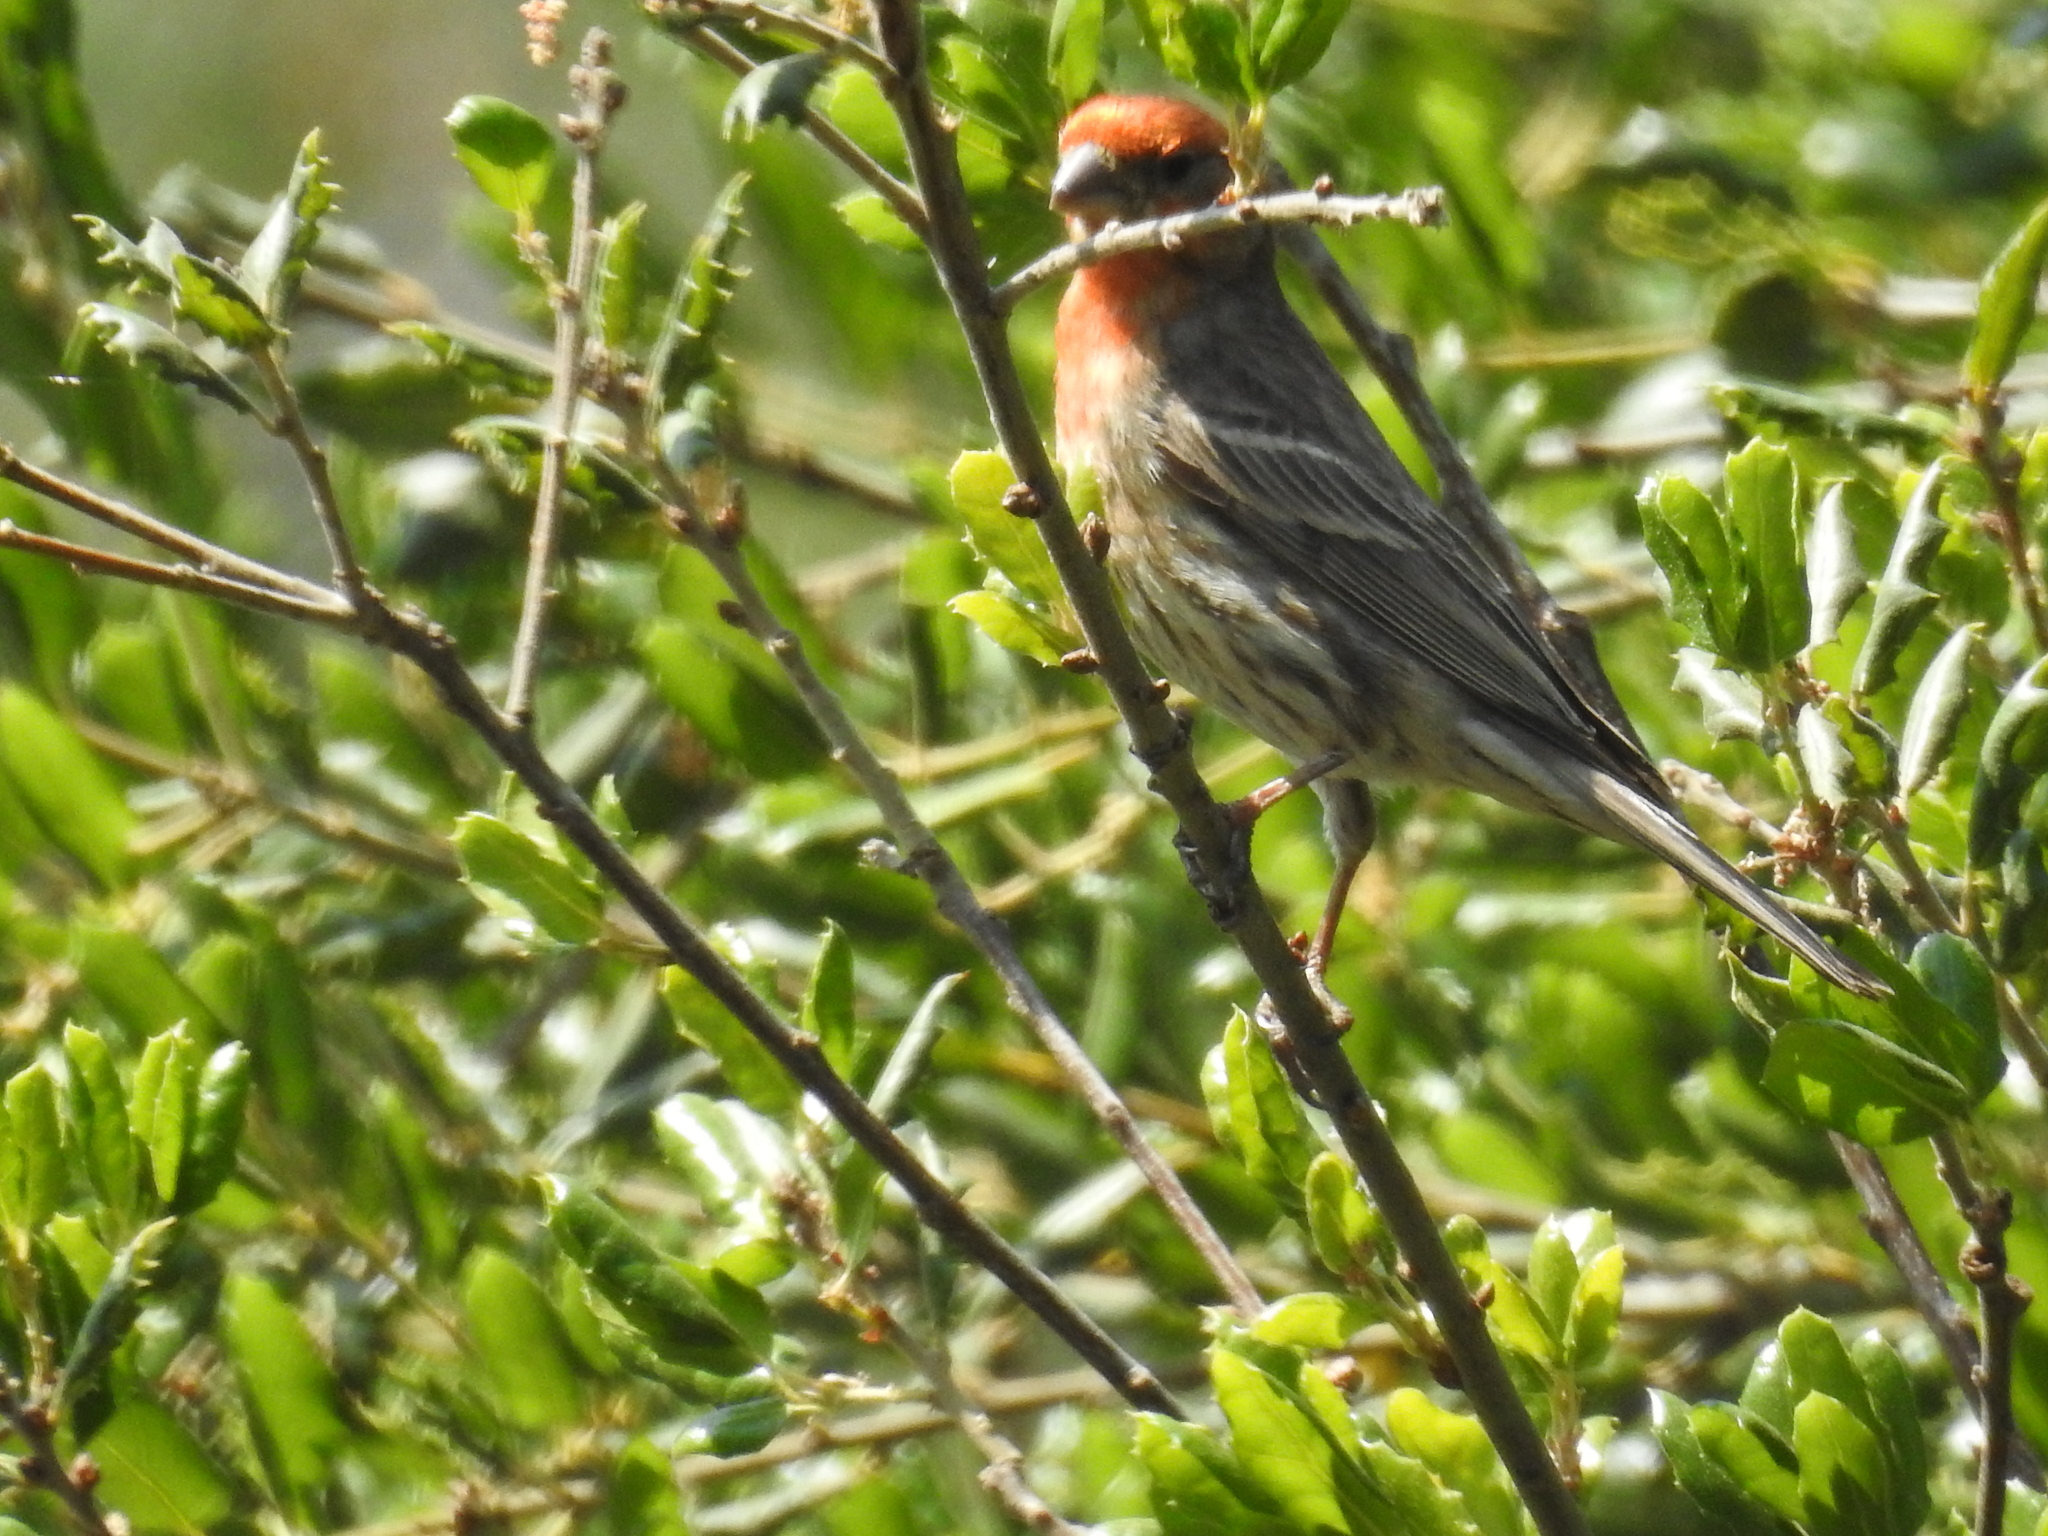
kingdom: Animalia
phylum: Chordata
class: Aves
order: Passeriformes
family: Fringillidae
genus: Haemorhous
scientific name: Haemorhous mexicanus
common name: House finch
